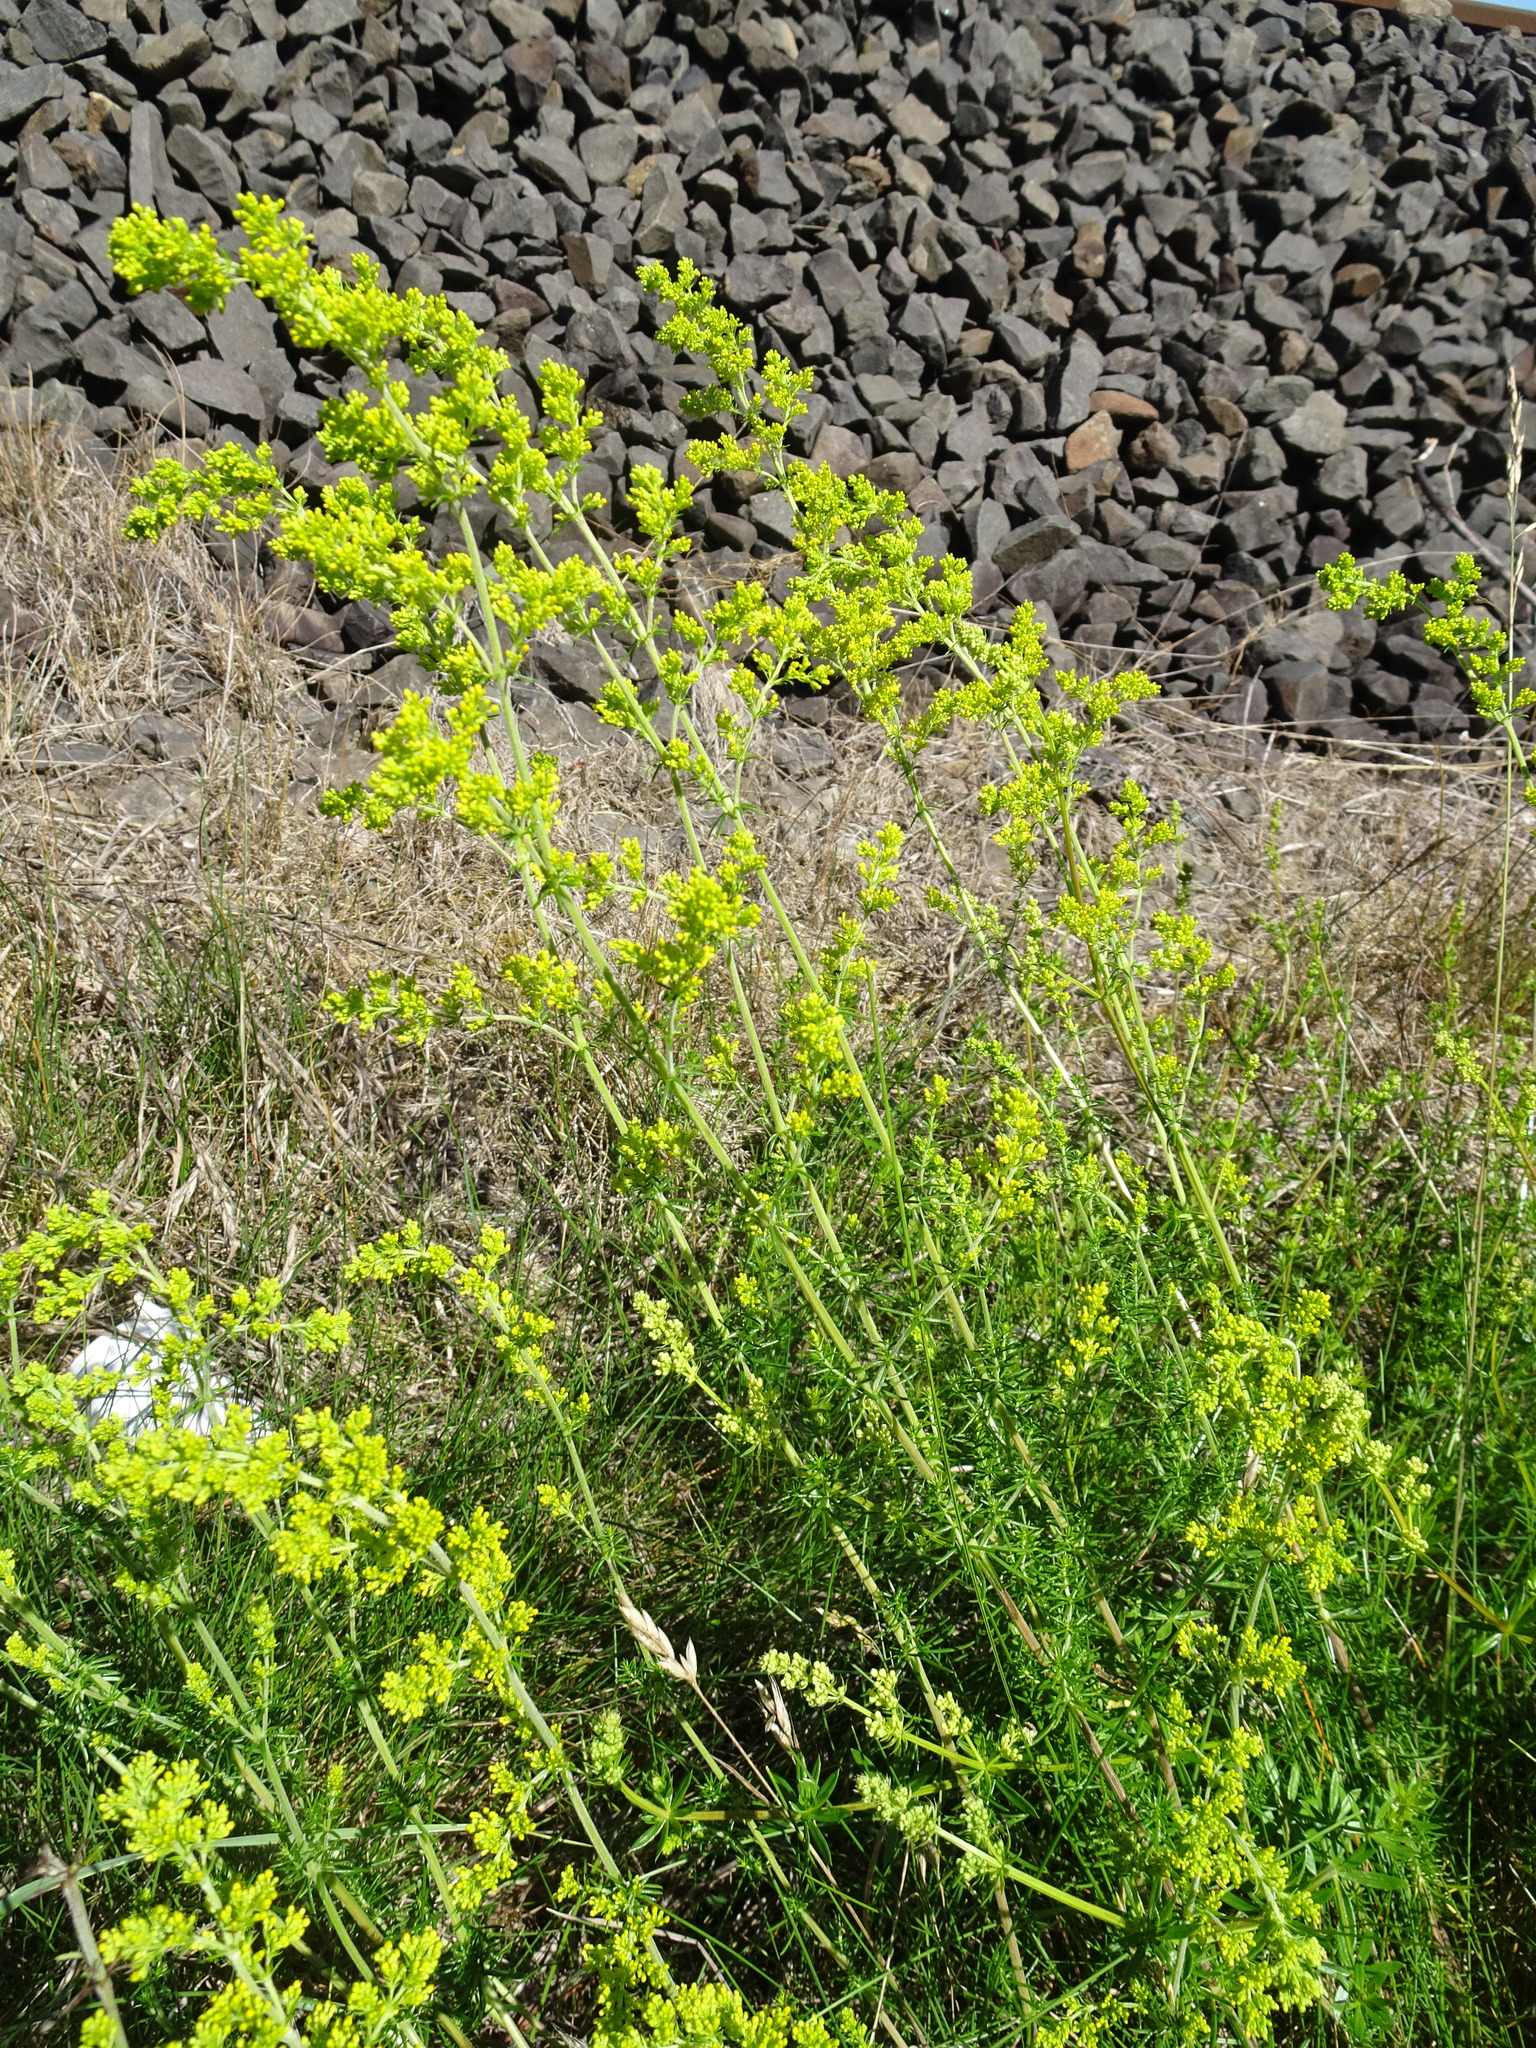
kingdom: Plantae
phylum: Tracheophyta
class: Magnoliopsida
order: Gentianales
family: Rubiaceae
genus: Galium
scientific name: Galium verum
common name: Lady's bedstraw
